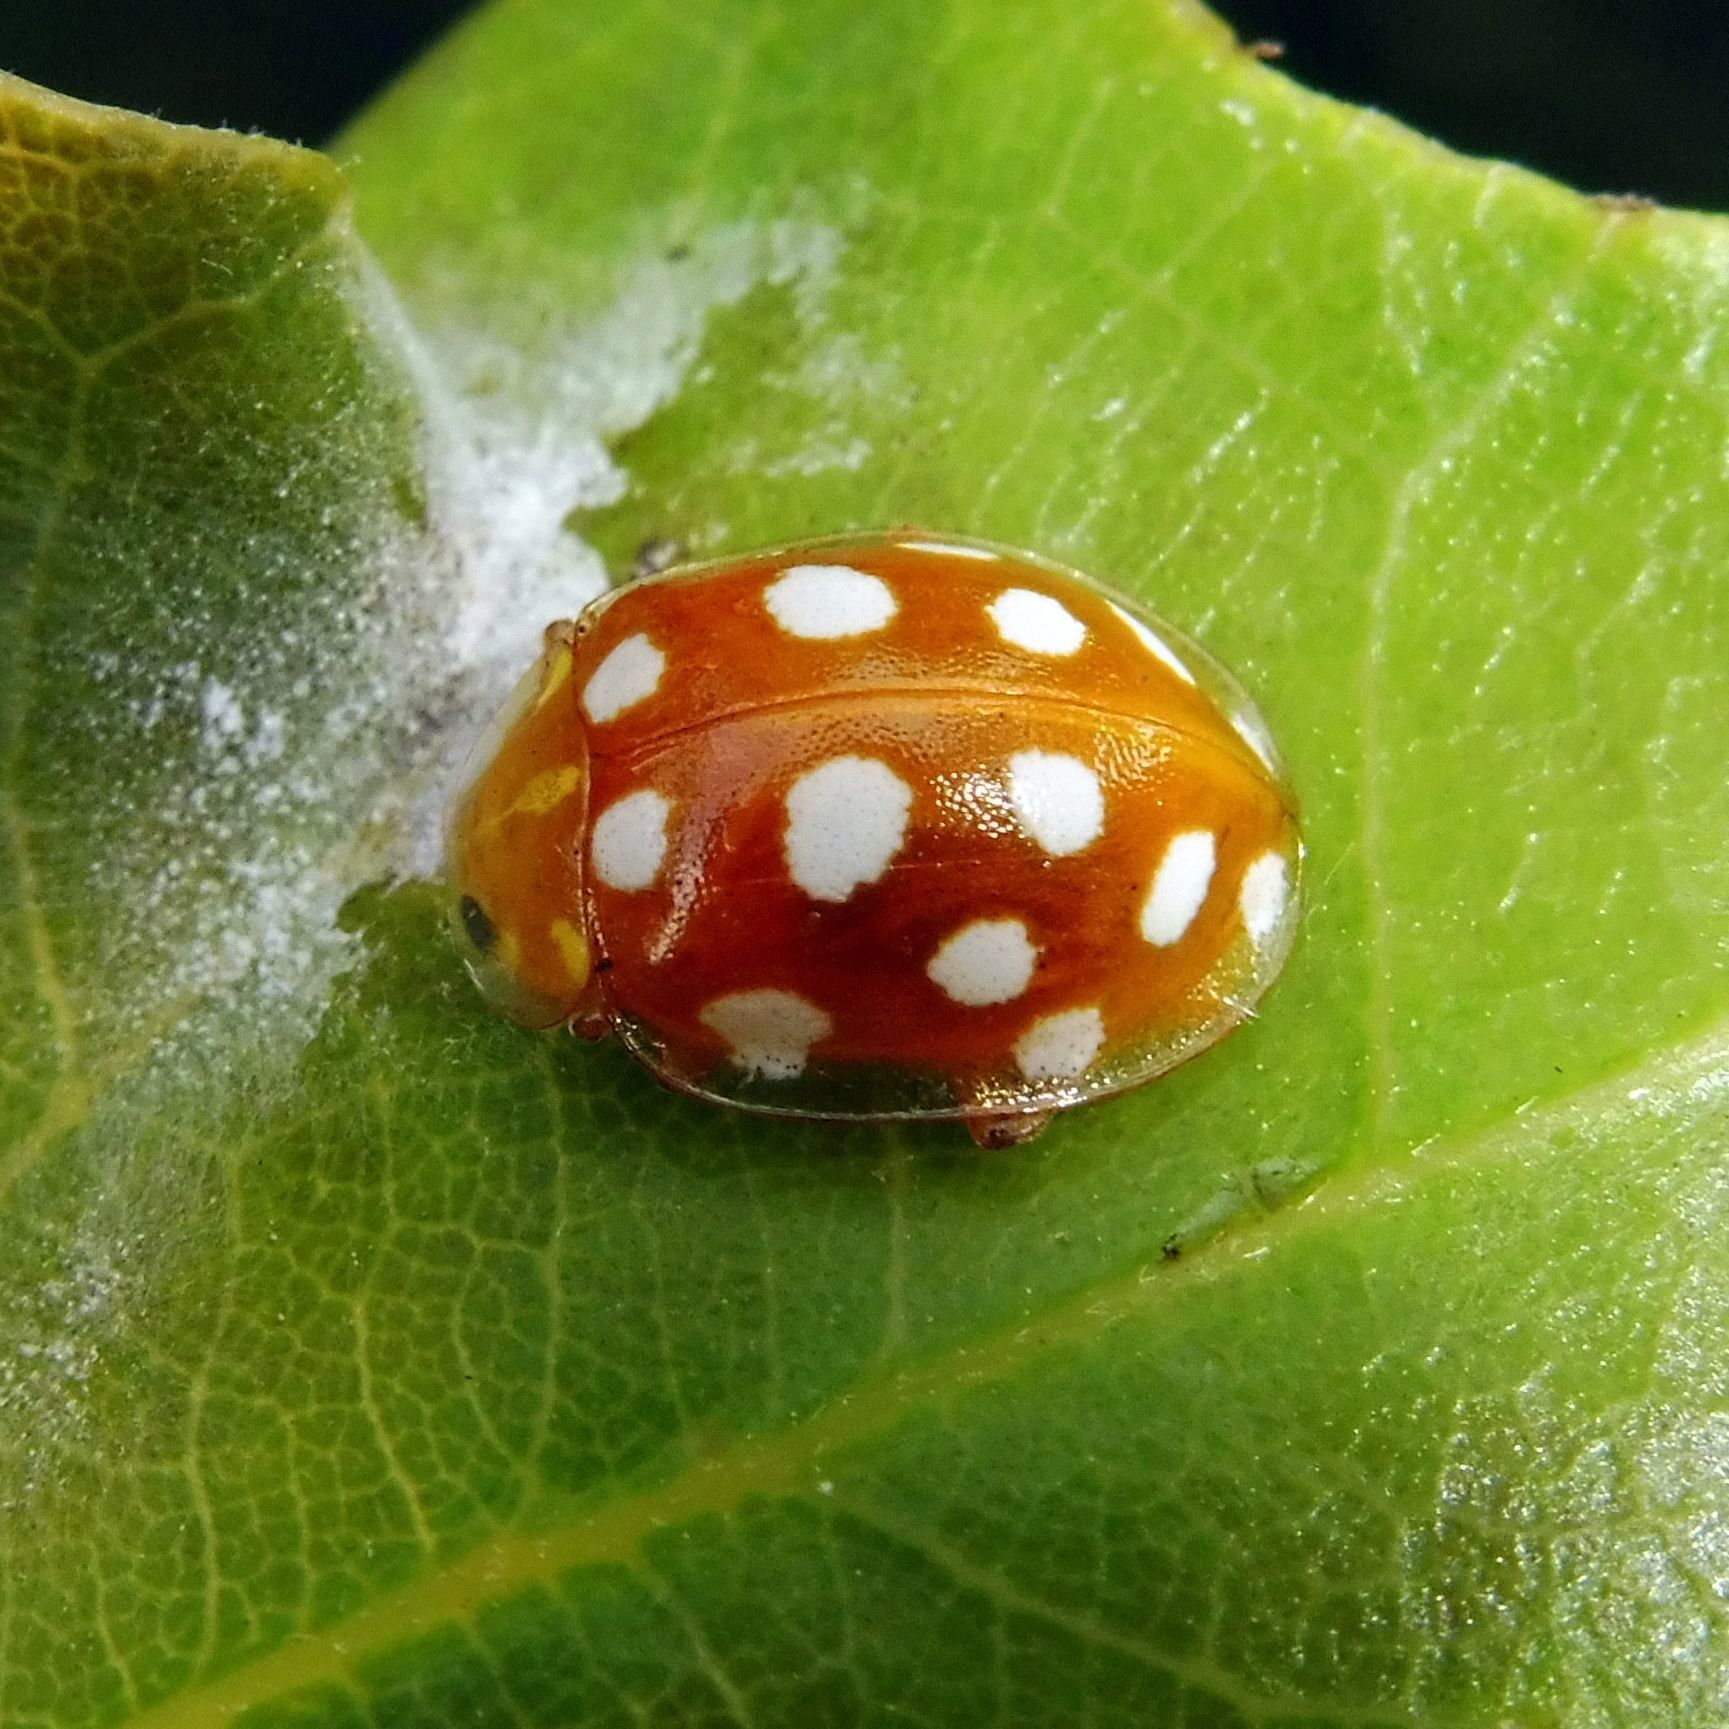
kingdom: Animalia
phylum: Arthropoda
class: Insecta
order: Coleoptera
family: Coccinellidae
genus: Halyzia
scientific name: Halyzia sedecimguttata
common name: Orange ladybird
